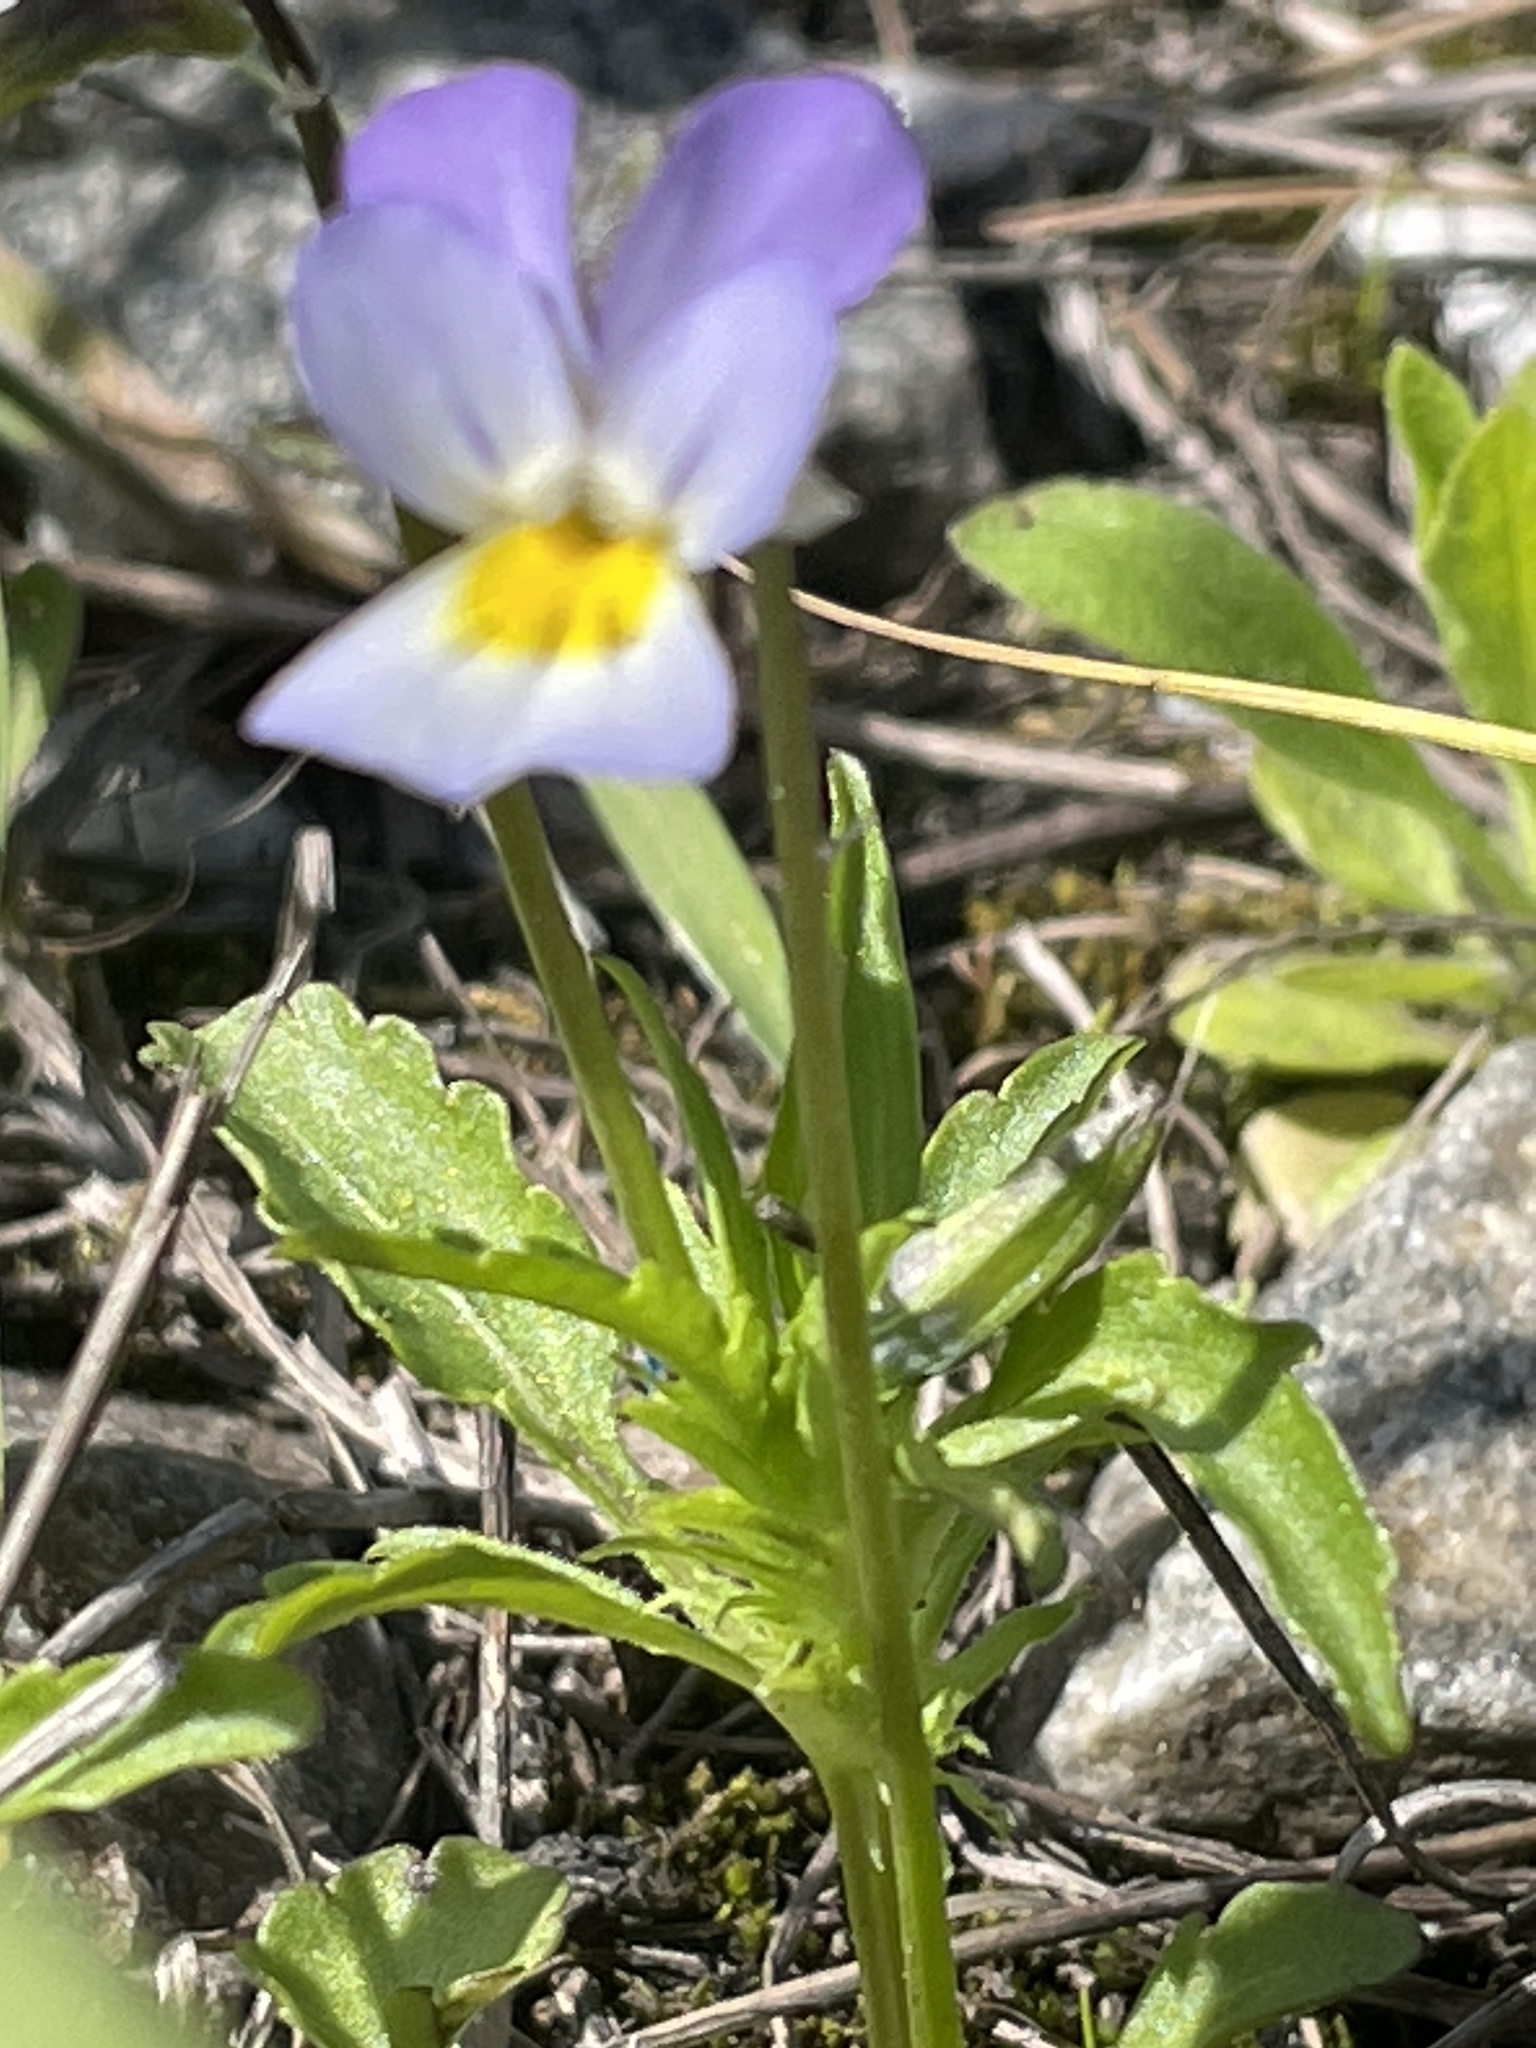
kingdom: Plantae
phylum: Tracheophyta
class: Magnoliopsida
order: Malpighiales
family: Violaceae
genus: Viola
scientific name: Viola tricolor
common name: Pansy
